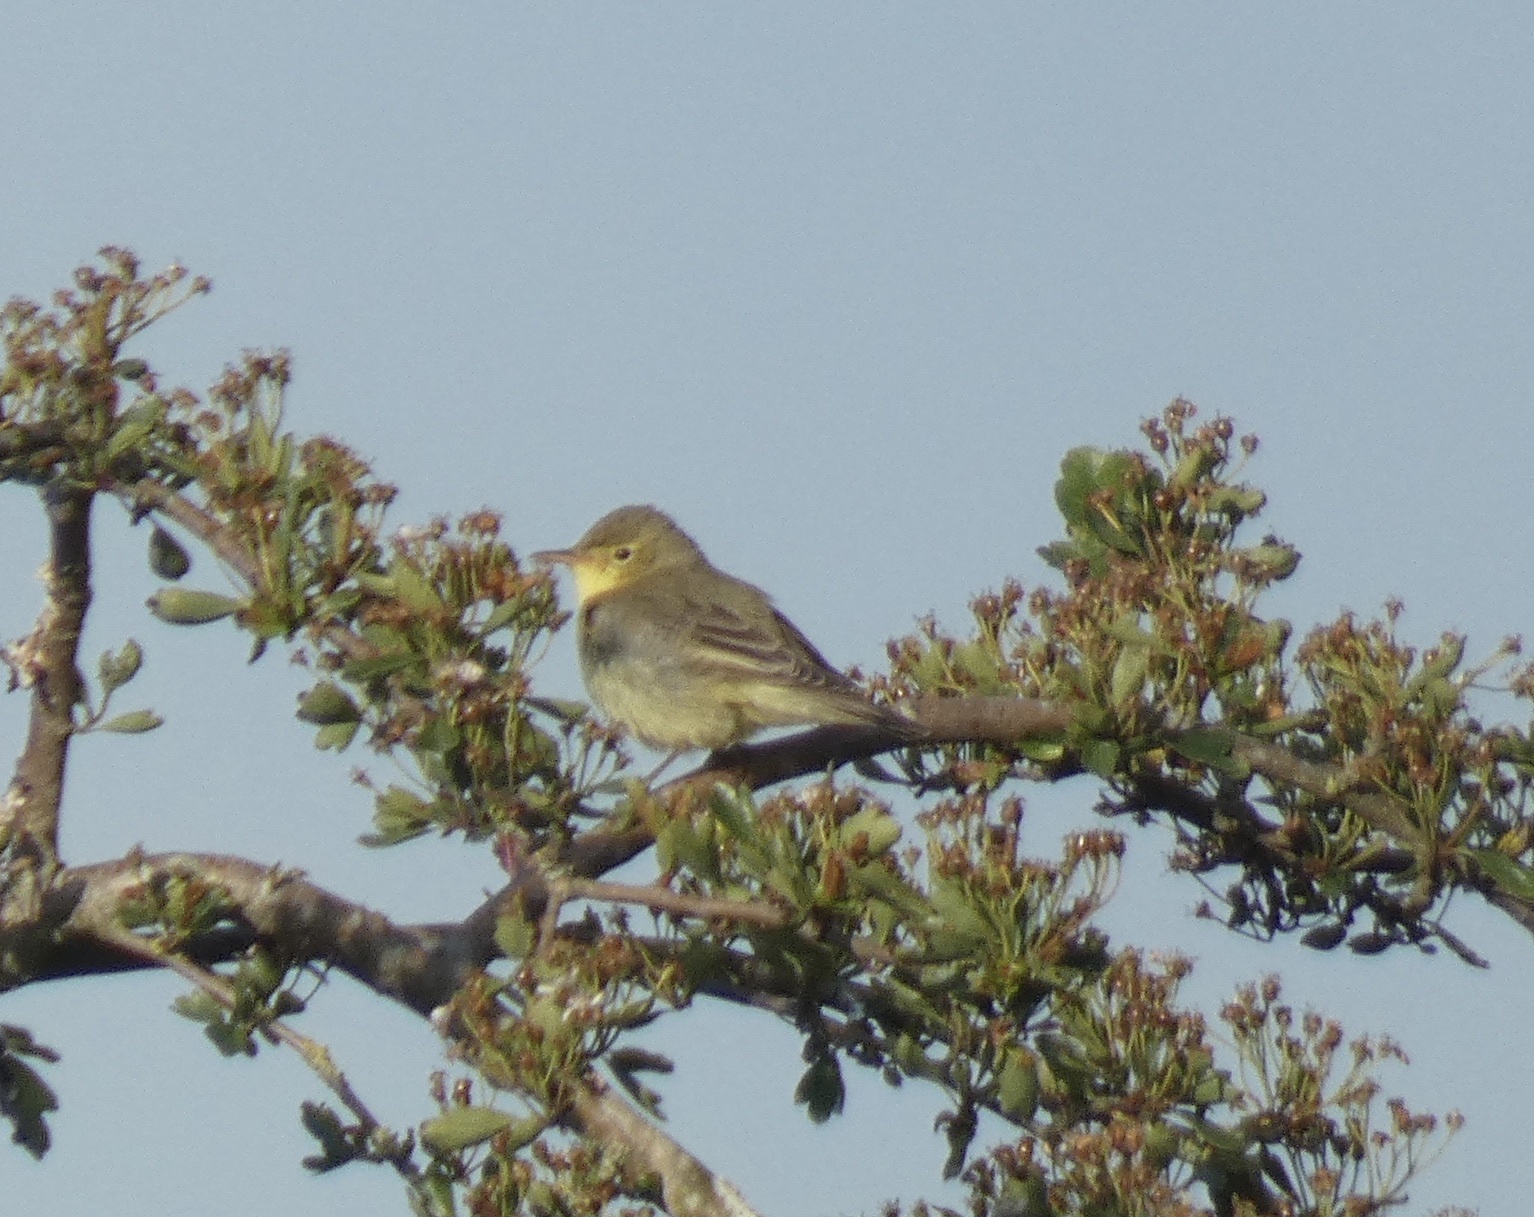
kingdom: Animalia
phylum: Chordata
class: Aves
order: Passeriformes
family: Acrocephalidae
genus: Hippolais
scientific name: Hippolais icterina
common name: Icterine warbler
